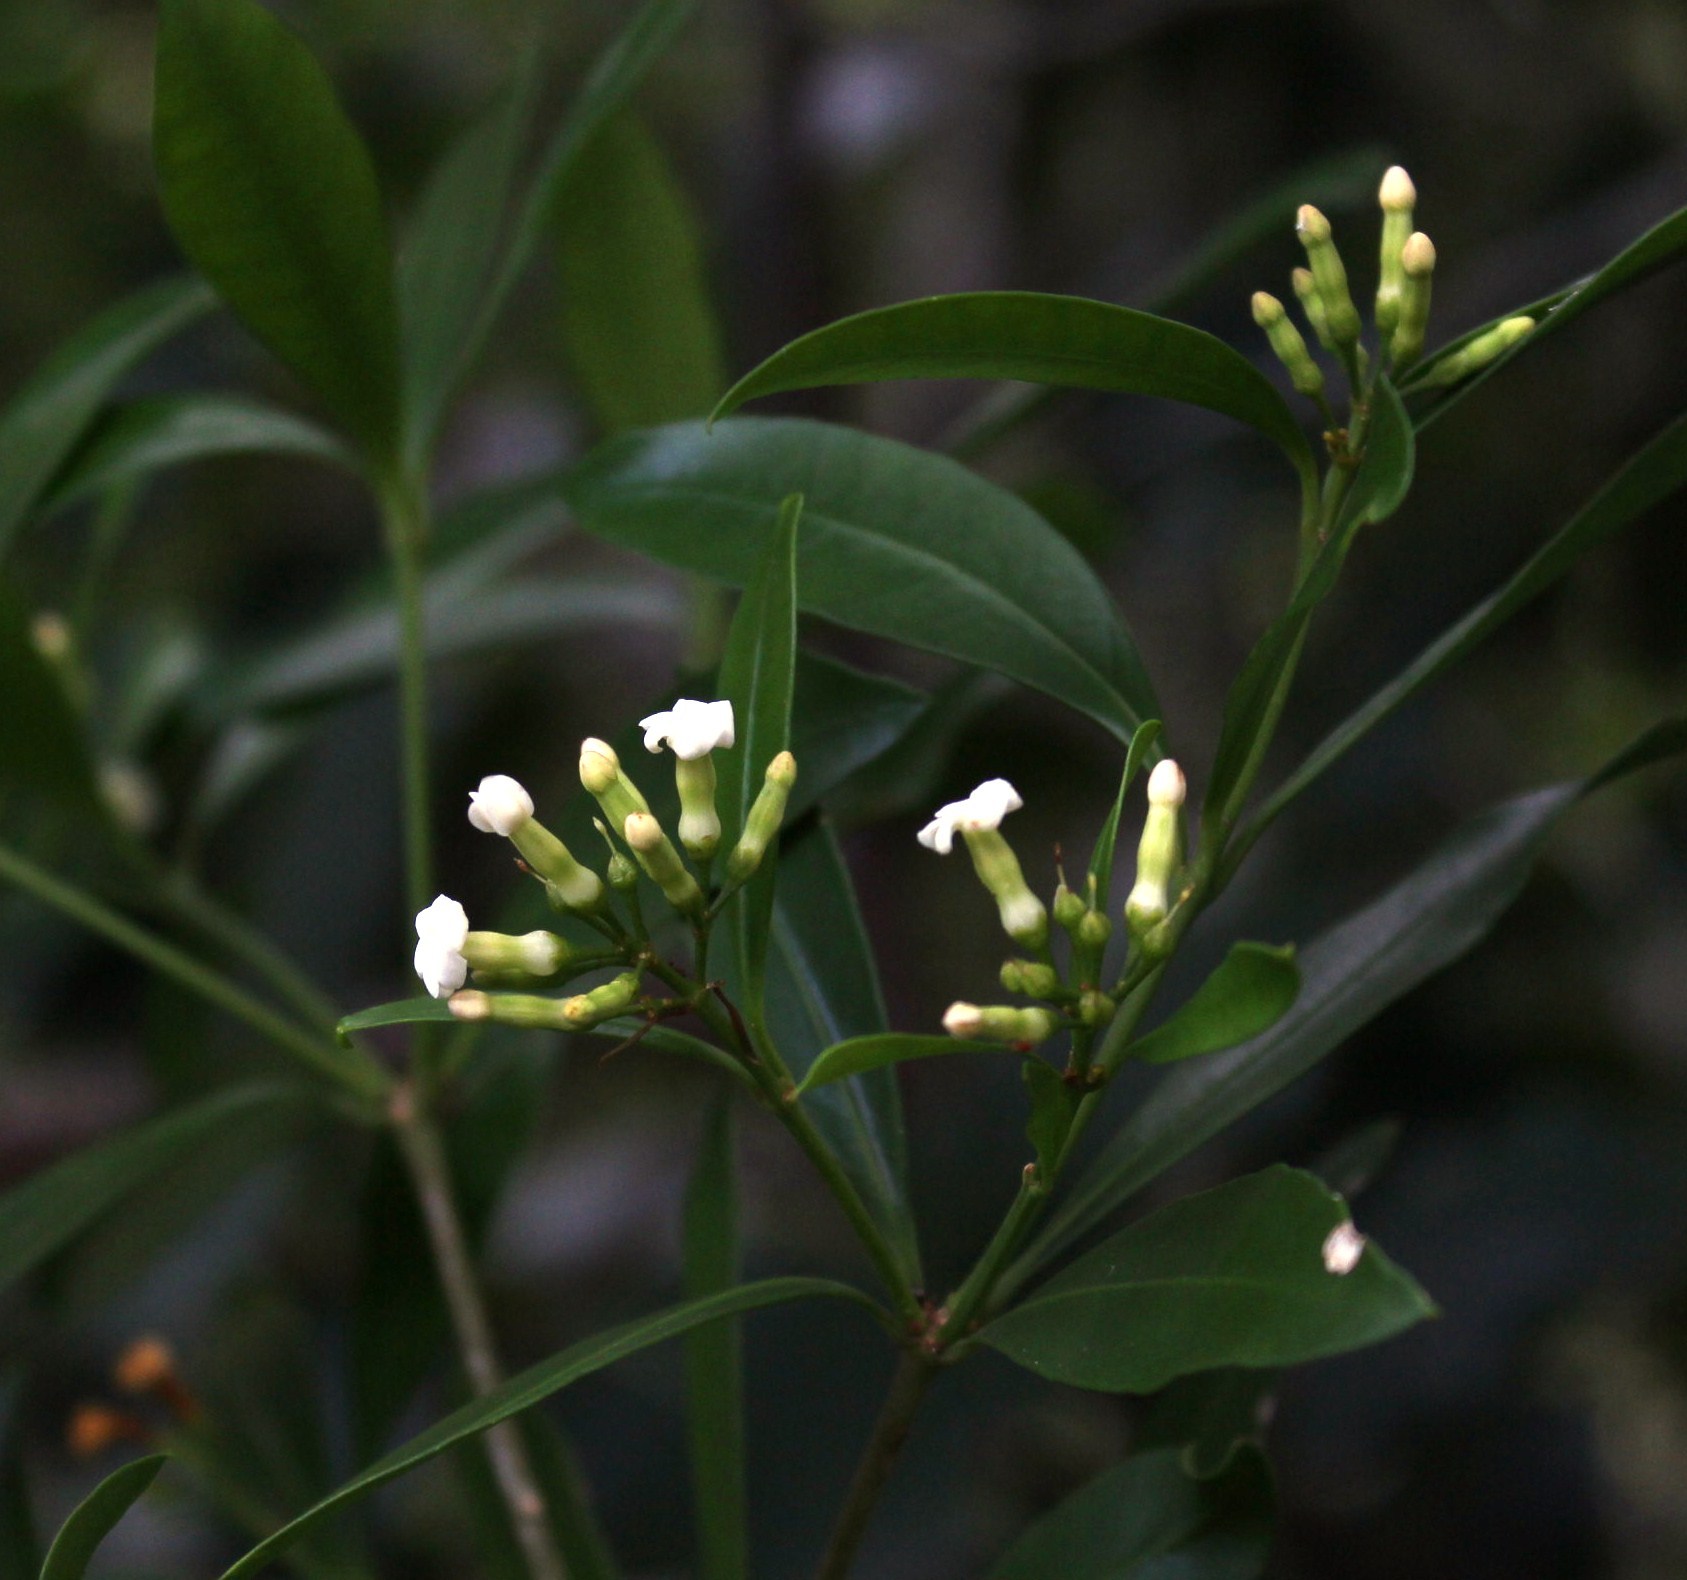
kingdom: Plantae
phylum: Tracheophyta
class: Magnoliopsida
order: Gentianales
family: Apocynaceae
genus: Gonioma
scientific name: Gonioma kamassi
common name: Kamassi
